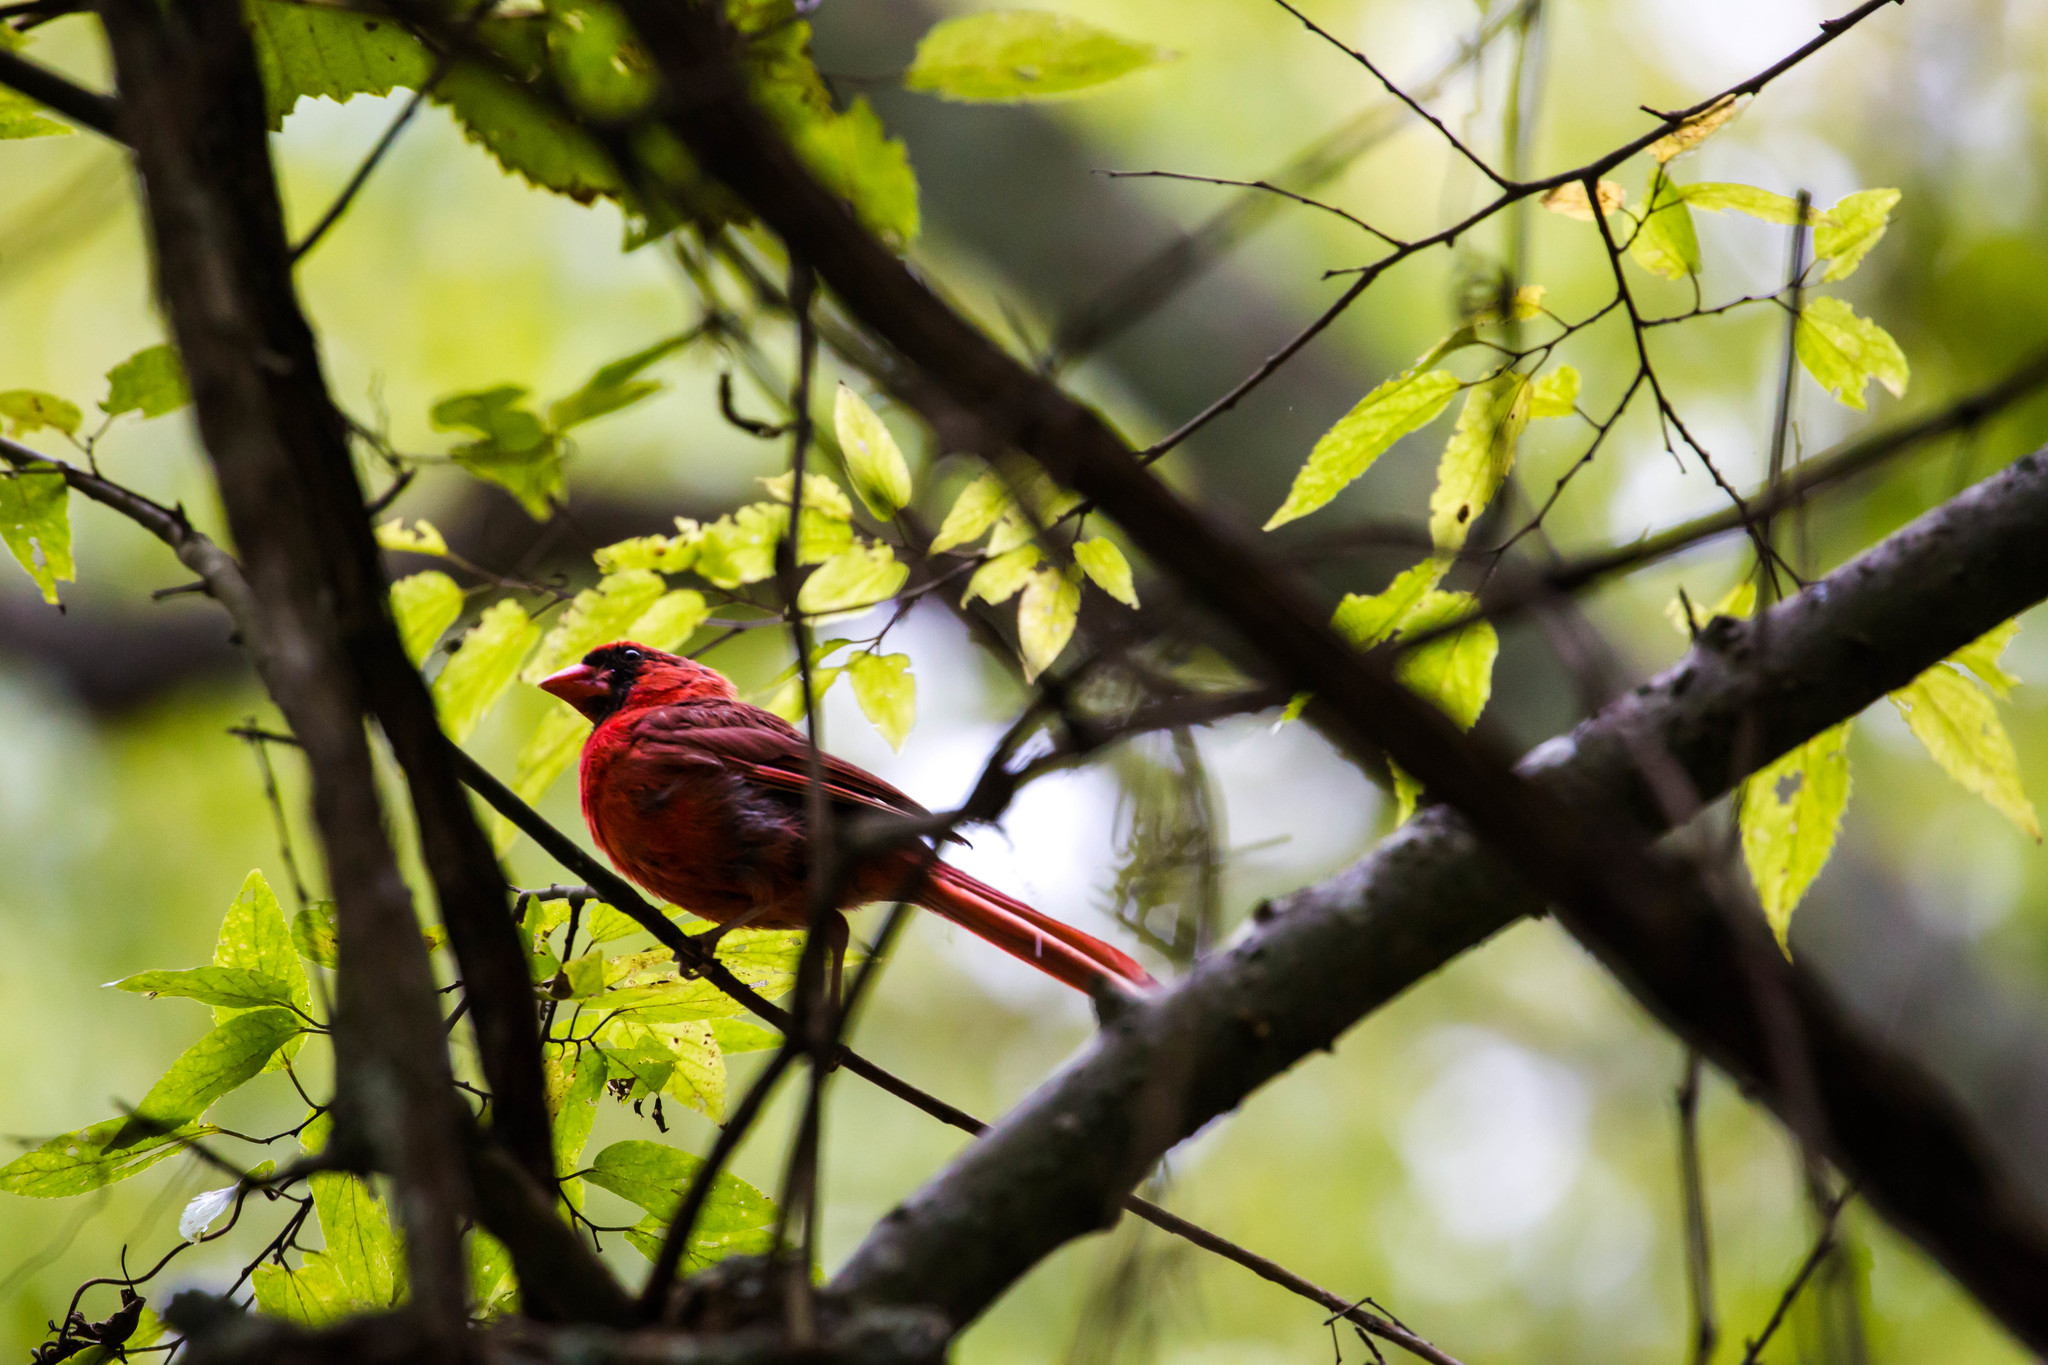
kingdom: Animalia
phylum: Chordata
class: Aves
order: Passeriformes
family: Cardinalidae
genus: Cardinalis
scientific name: Cardinalis cardinalis
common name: Northern cardinal
